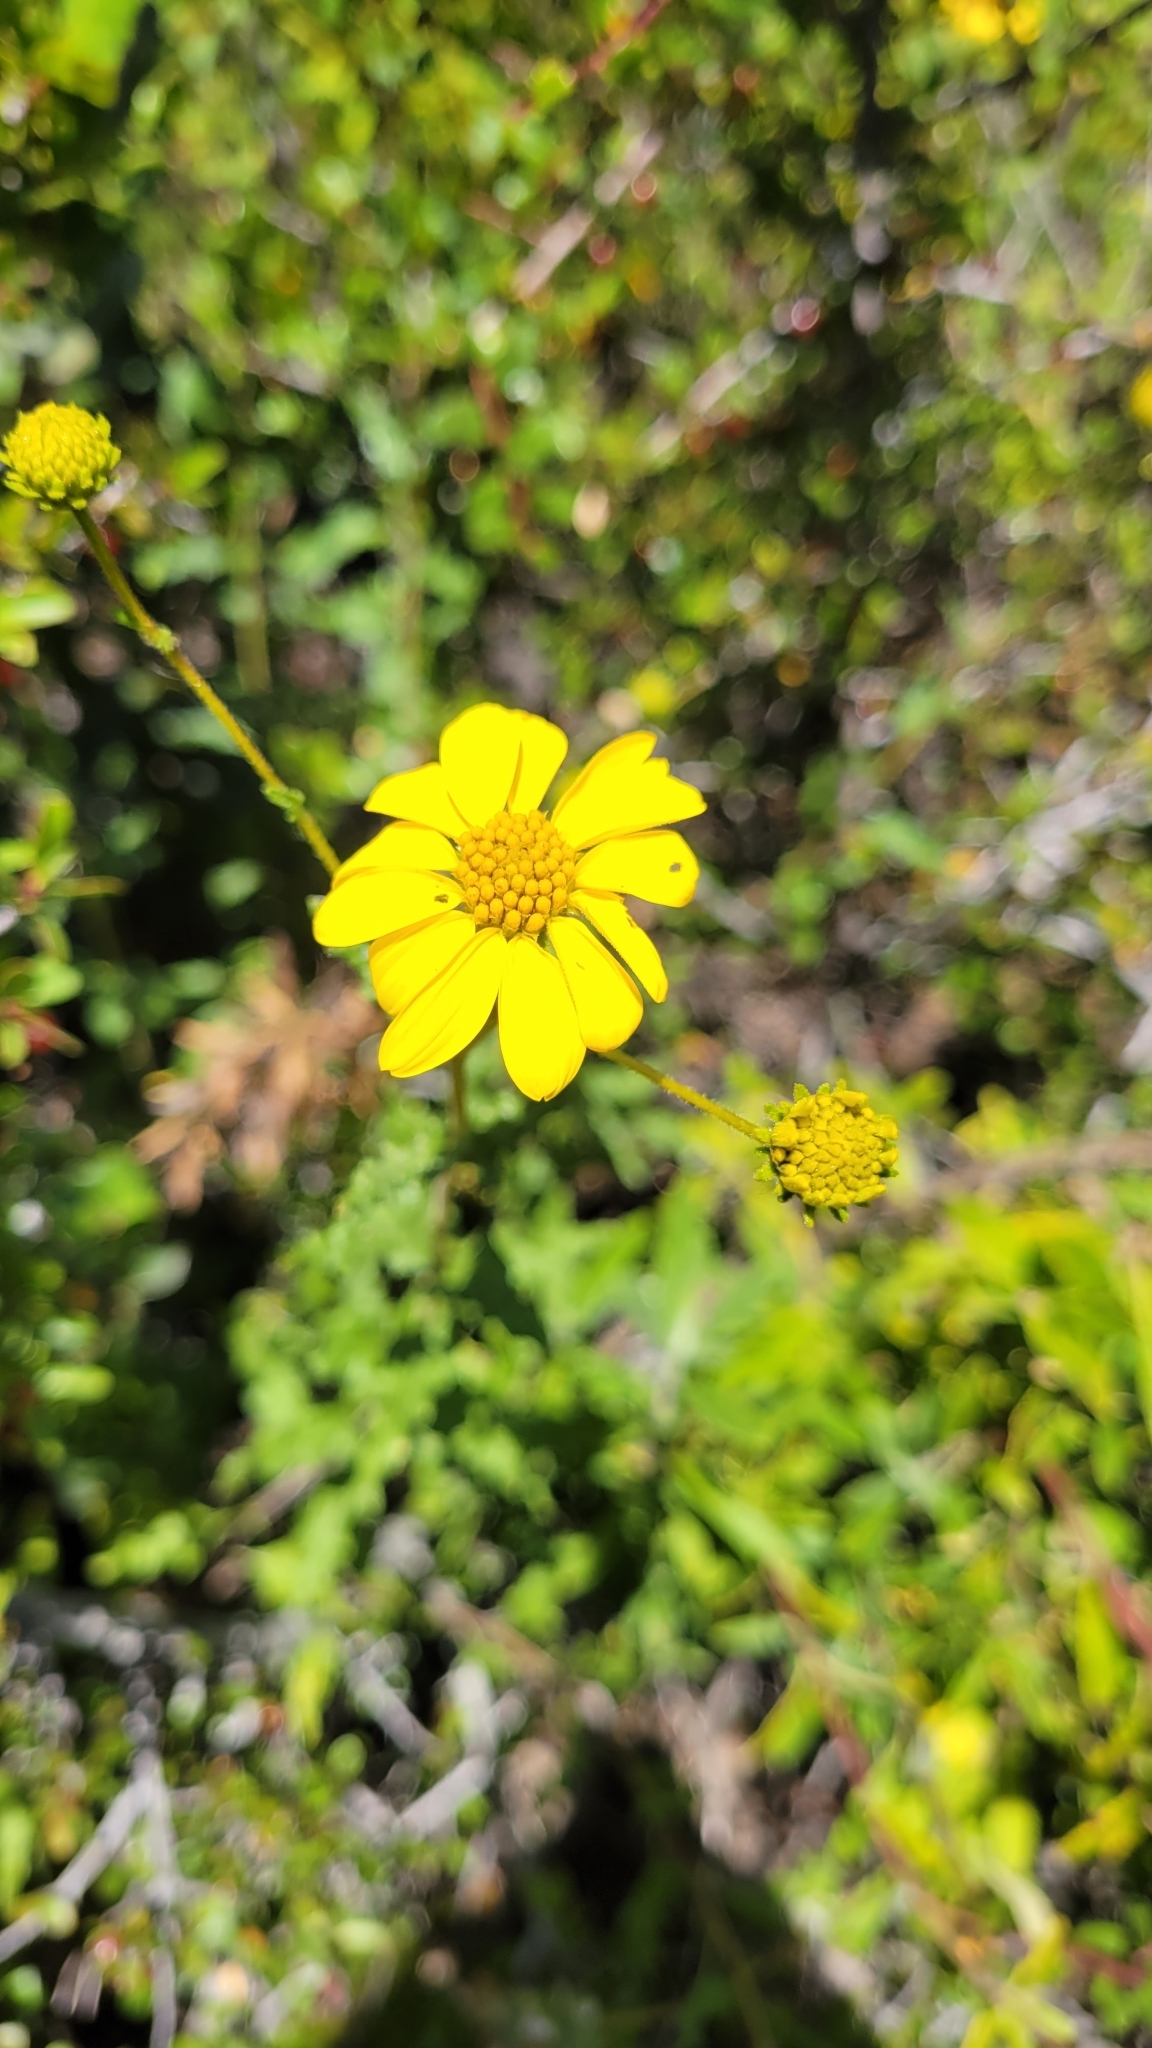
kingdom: Plantae
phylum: Tracheophyta
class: Magnoliopsida
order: Asterales
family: Asteraceae
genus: Bahiopsis
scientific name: Bahiopsis laciniata
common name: San diego county viguiera
